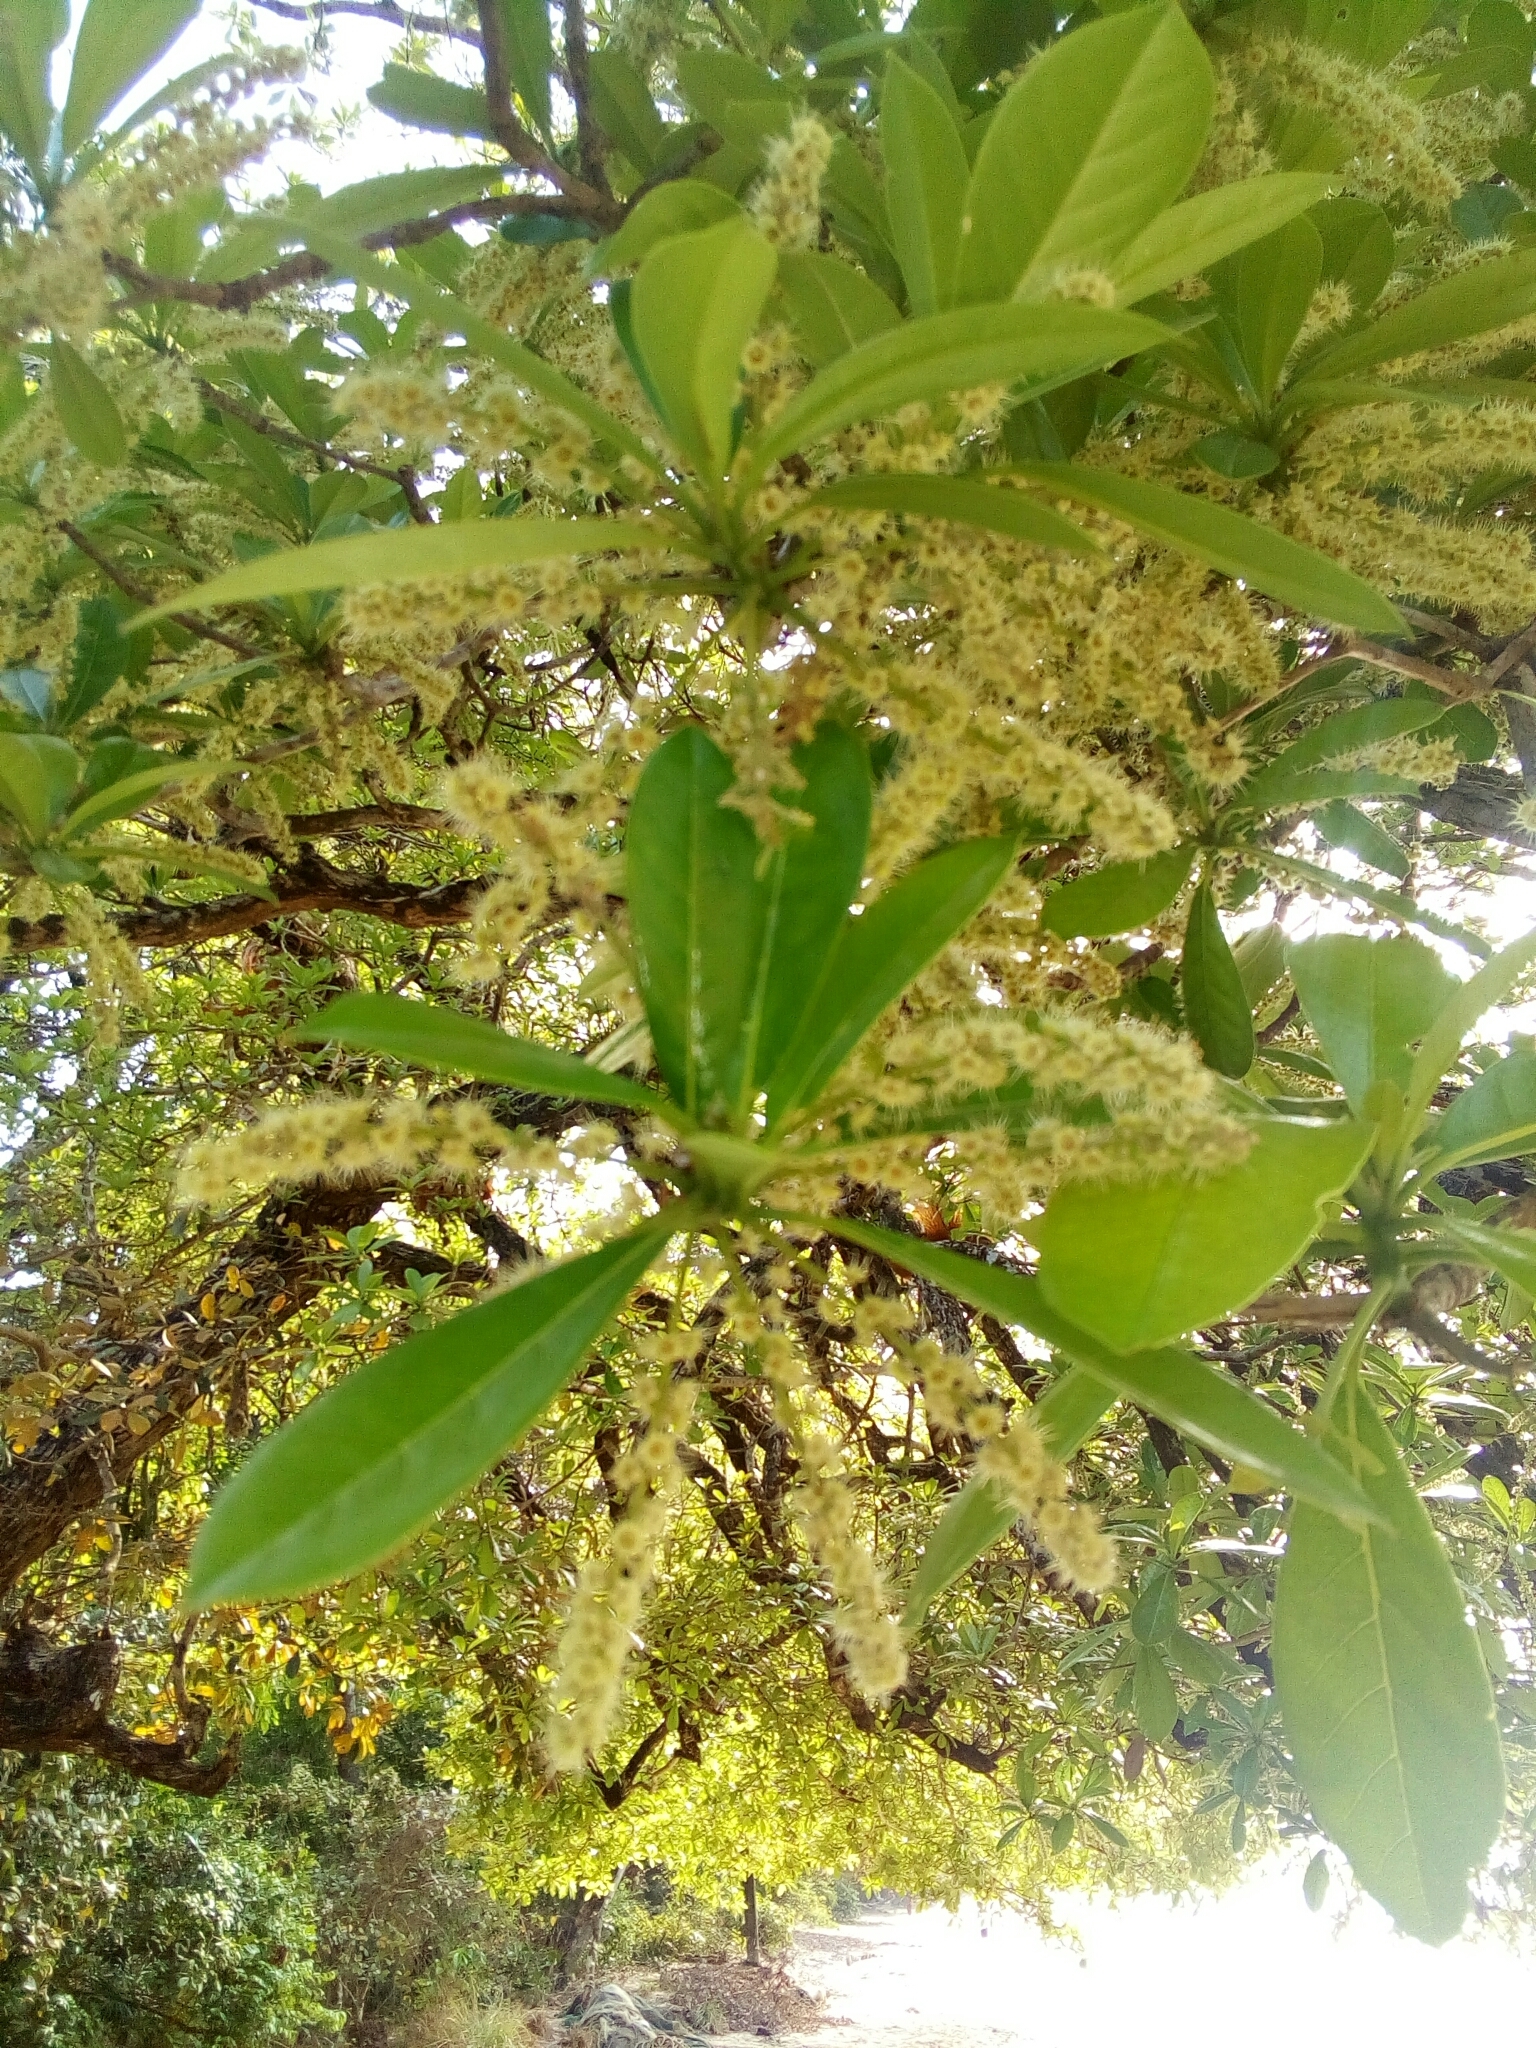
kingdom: Plantae
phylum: Tracheophyta
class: Magnoliopsida
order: Myrtales
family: Combretaceae
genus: Terminalia
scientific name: Terminalia scutifera
